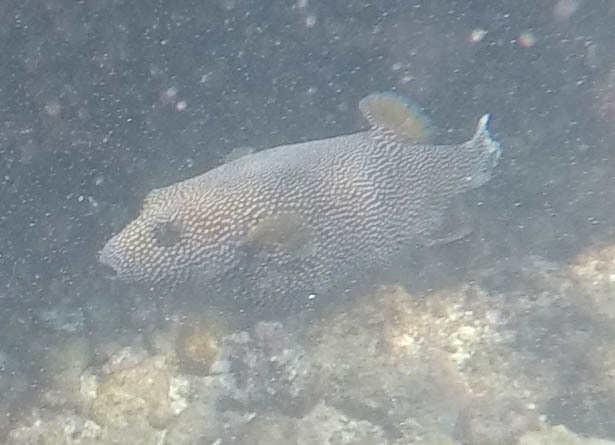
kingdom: Animalia
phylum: Chordata
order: Tetraodontiformes
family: Tetraodontidae
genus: Arothron
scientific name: Arothron meleagris
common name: Guinea-fowl pufferfish
